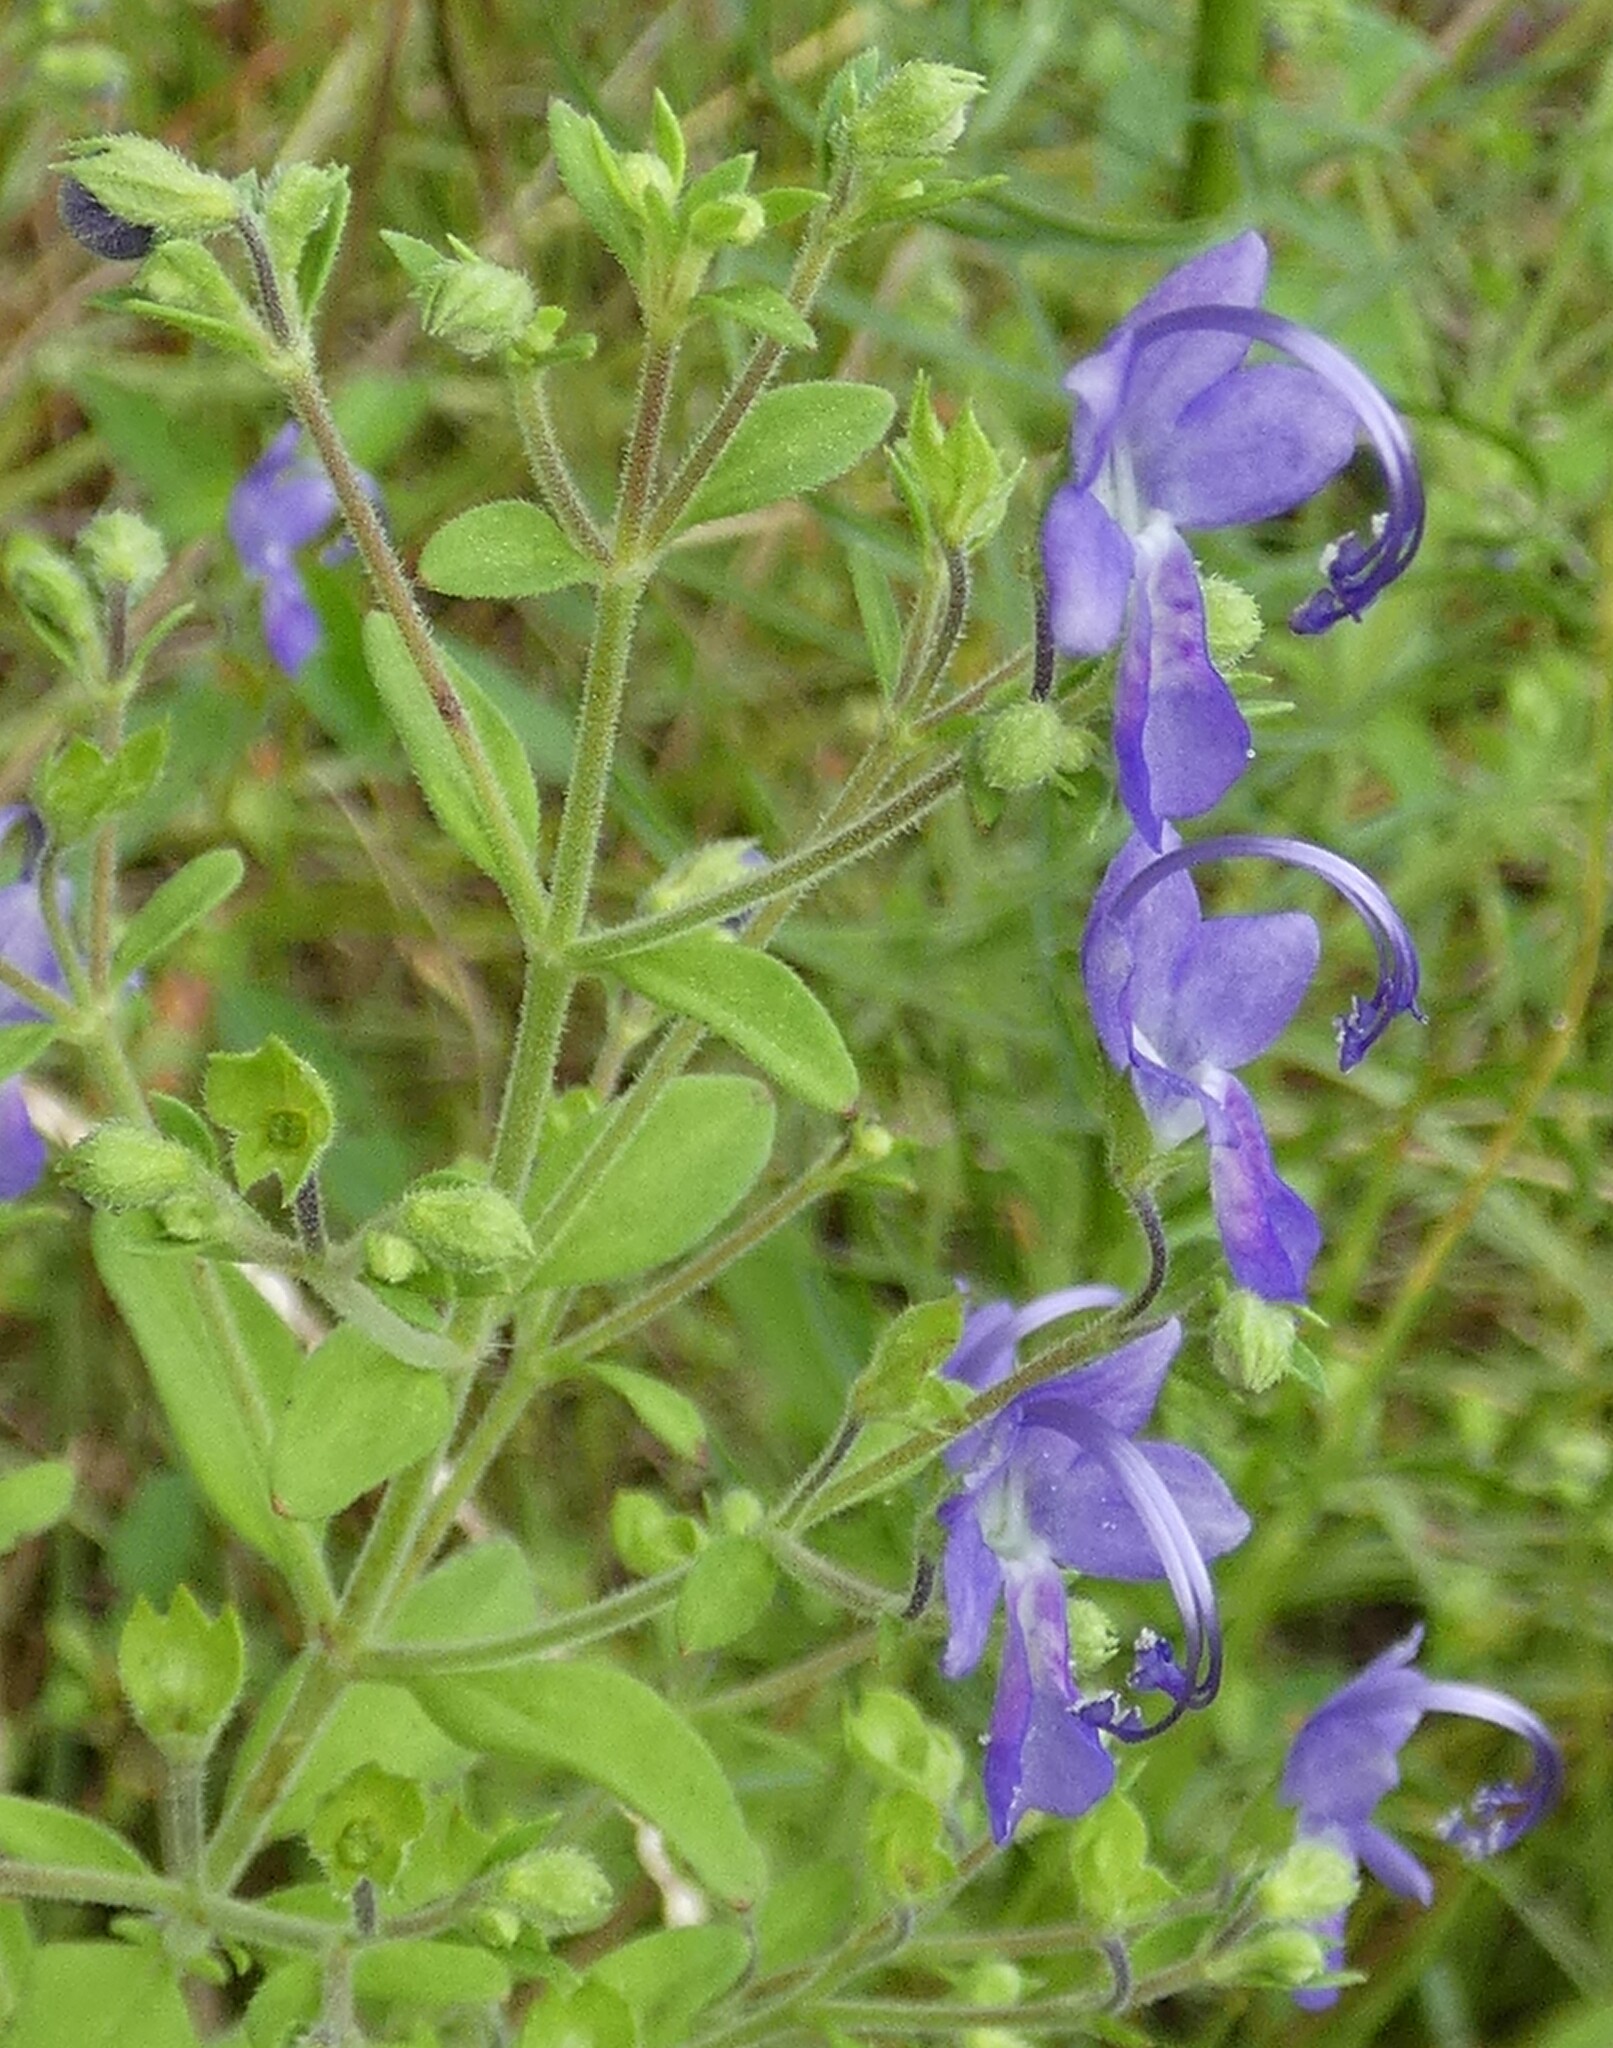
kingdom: Plantae
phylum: Tracheophyta
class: Magnoliopsida
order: Lamiales
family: Lamiaceae
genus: Trichostema
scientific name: Trichostema dichotomum
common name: Bastard pennyroyal
